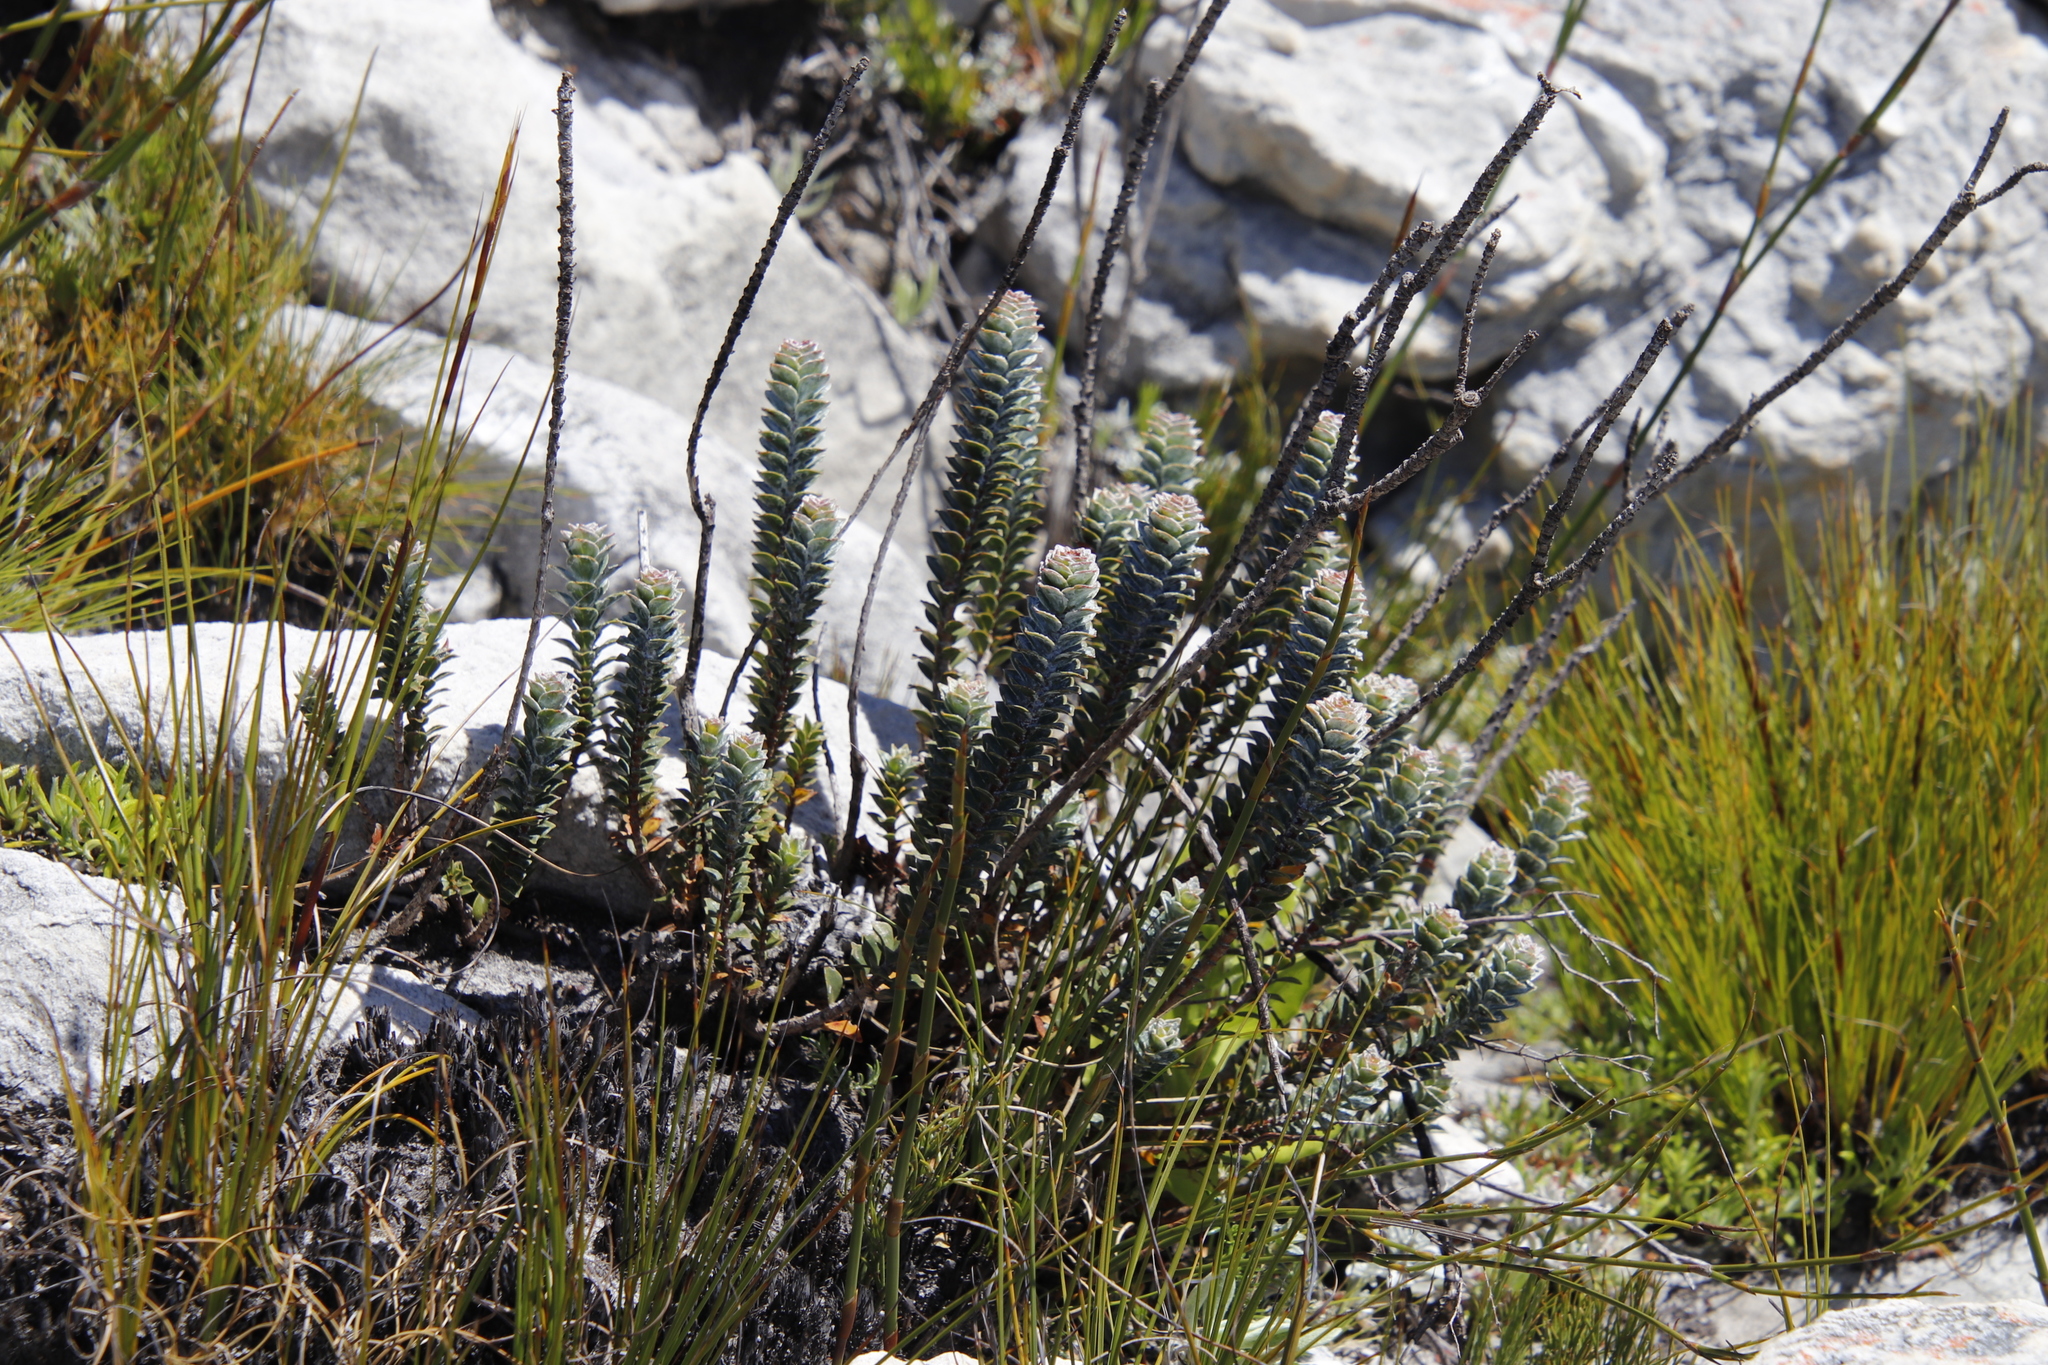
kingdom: Plantae
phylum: Tracheophyta
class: Magnoliopsida
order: Myrtales
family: Penaeaceae
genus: Saltera
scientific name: Saltera sarcocolla
